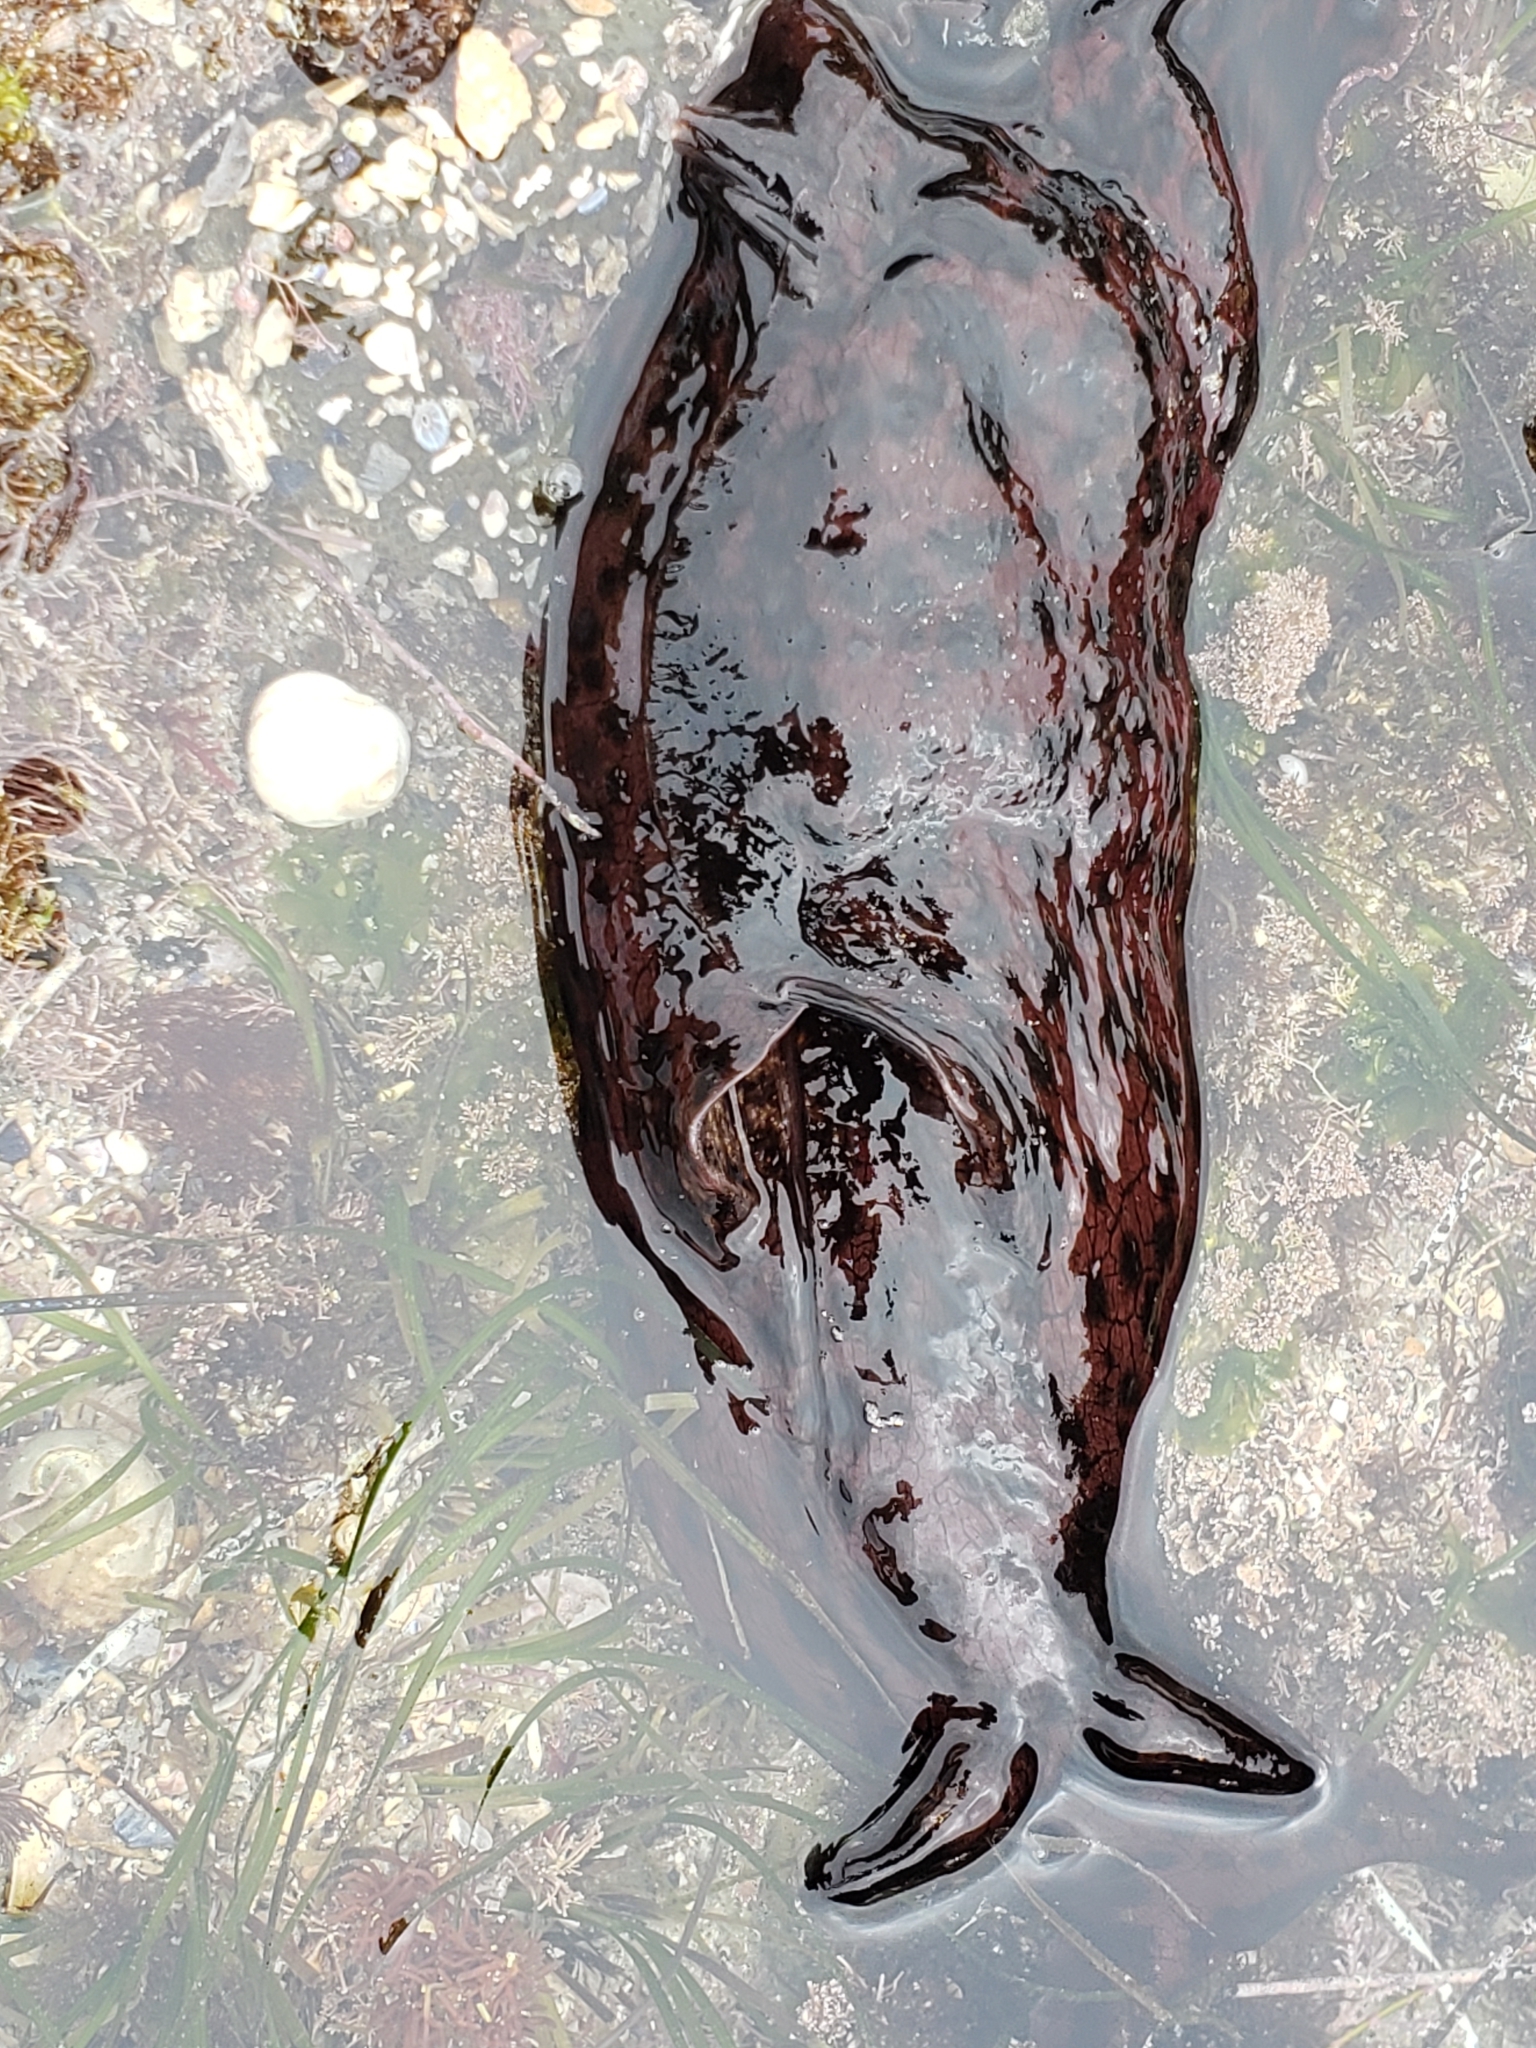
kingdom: Animalia
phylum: Mollusca
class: Gastropoda
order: Aplysiida
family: Aplysiidae
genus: Aplysia
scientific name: Aplysia californica
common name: California seahare
